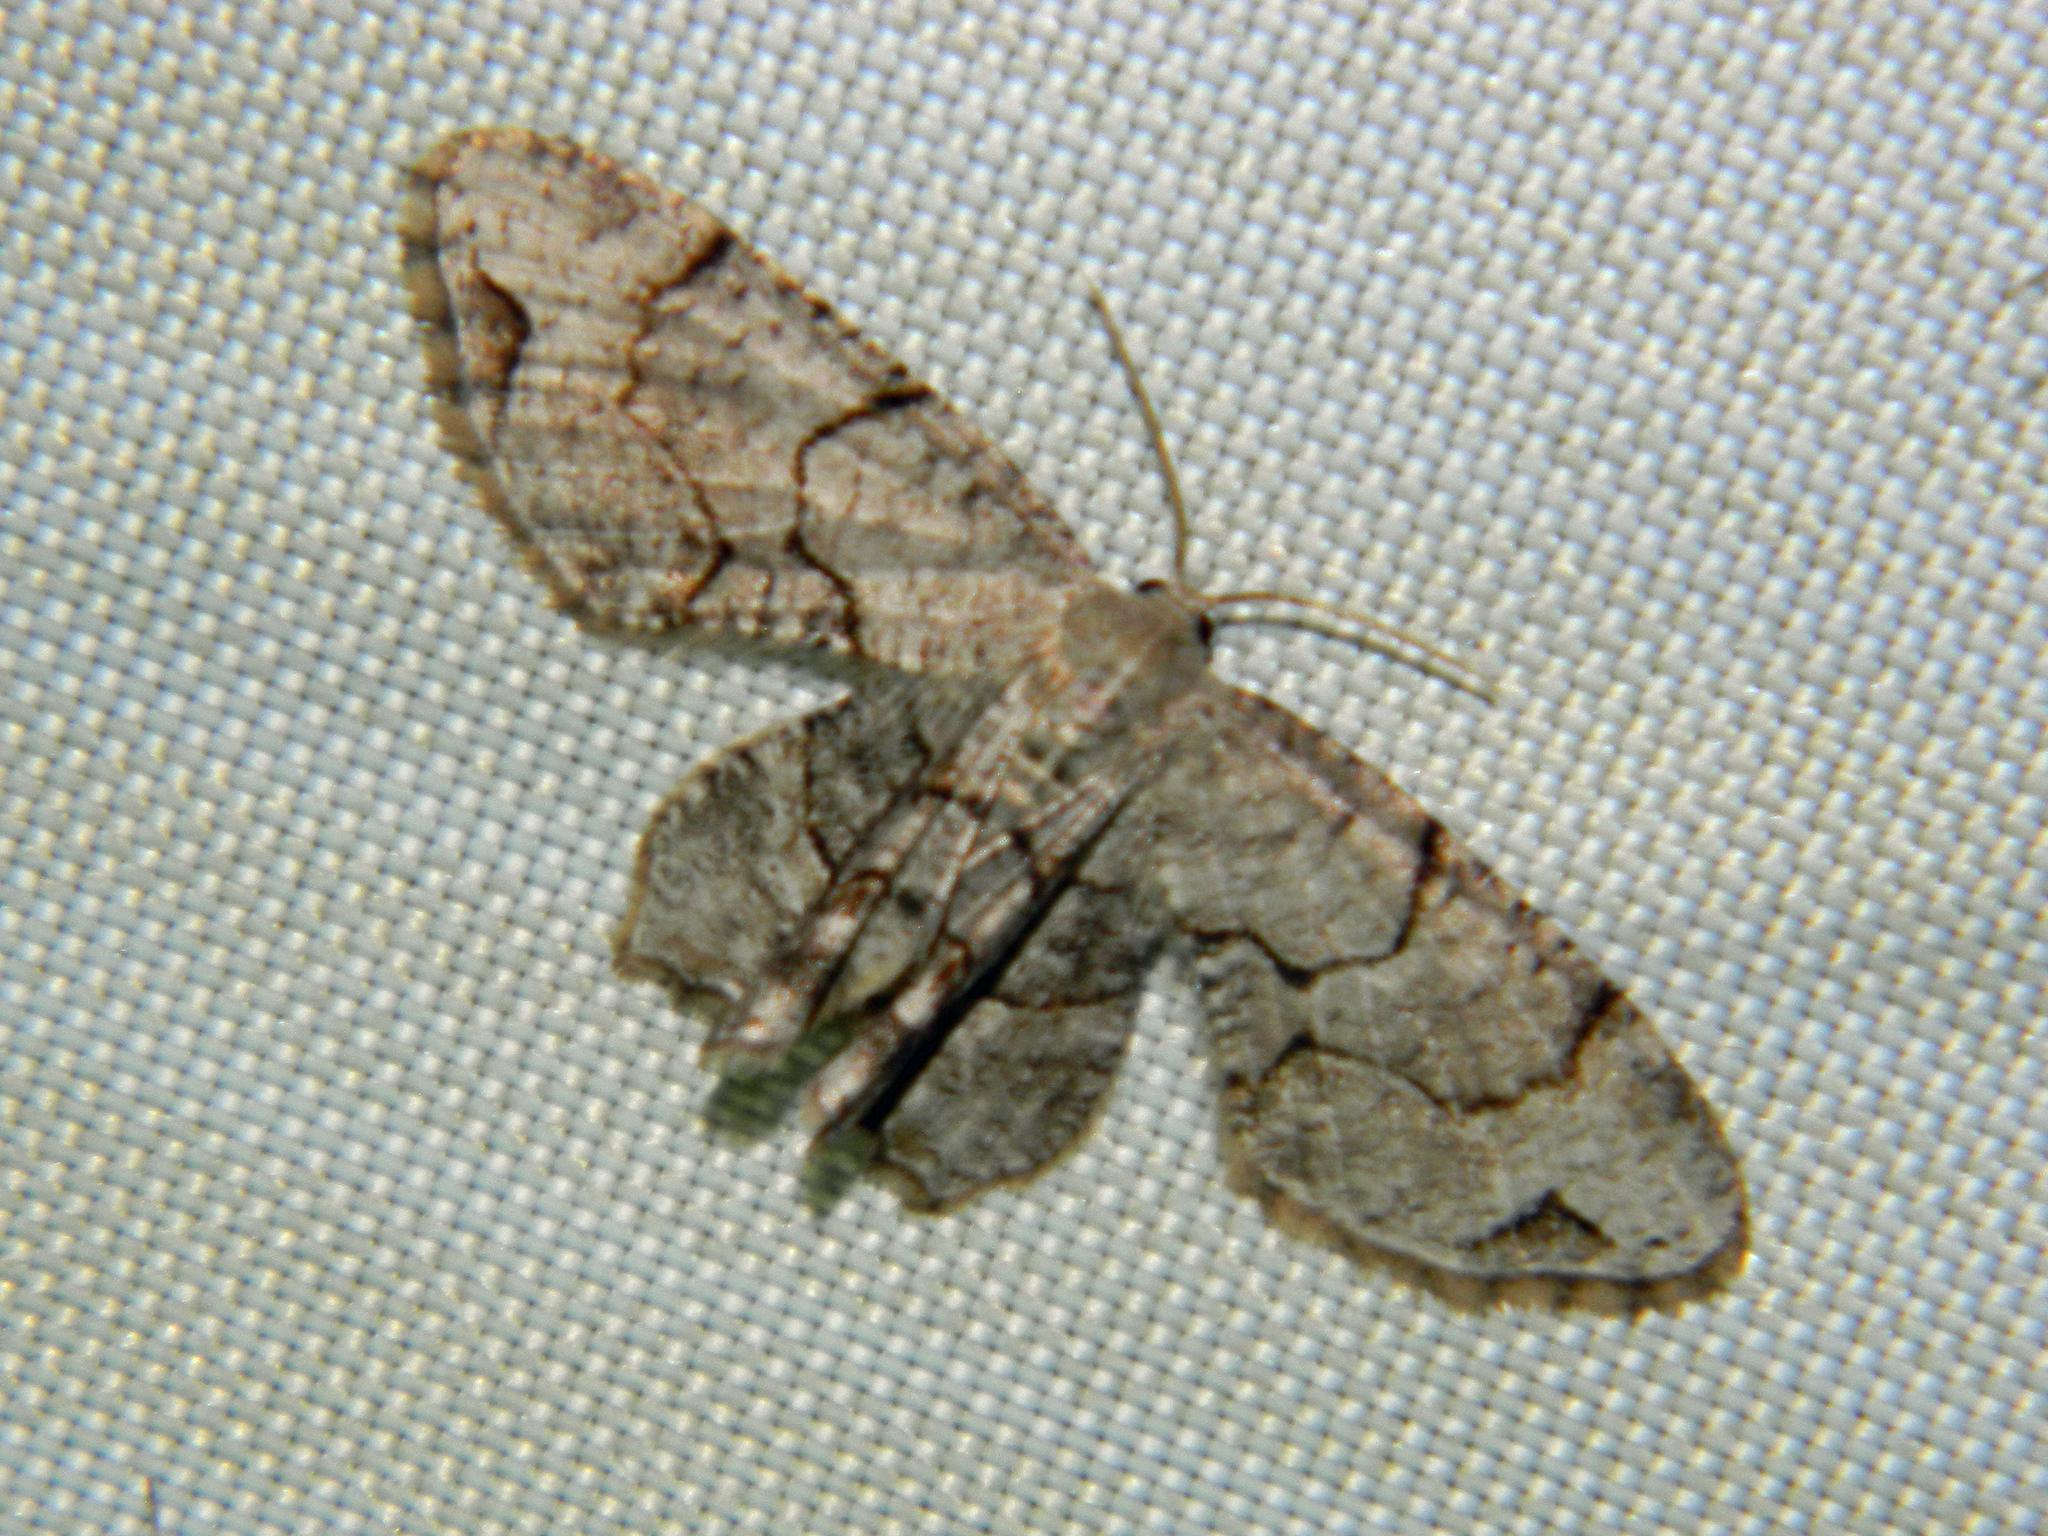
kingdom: Animalia
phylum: Arthropoda
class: Insecta
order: Lepidoptera
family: Uraniidae
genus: Epiplema
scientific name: Epiplema Callizzia amorata
